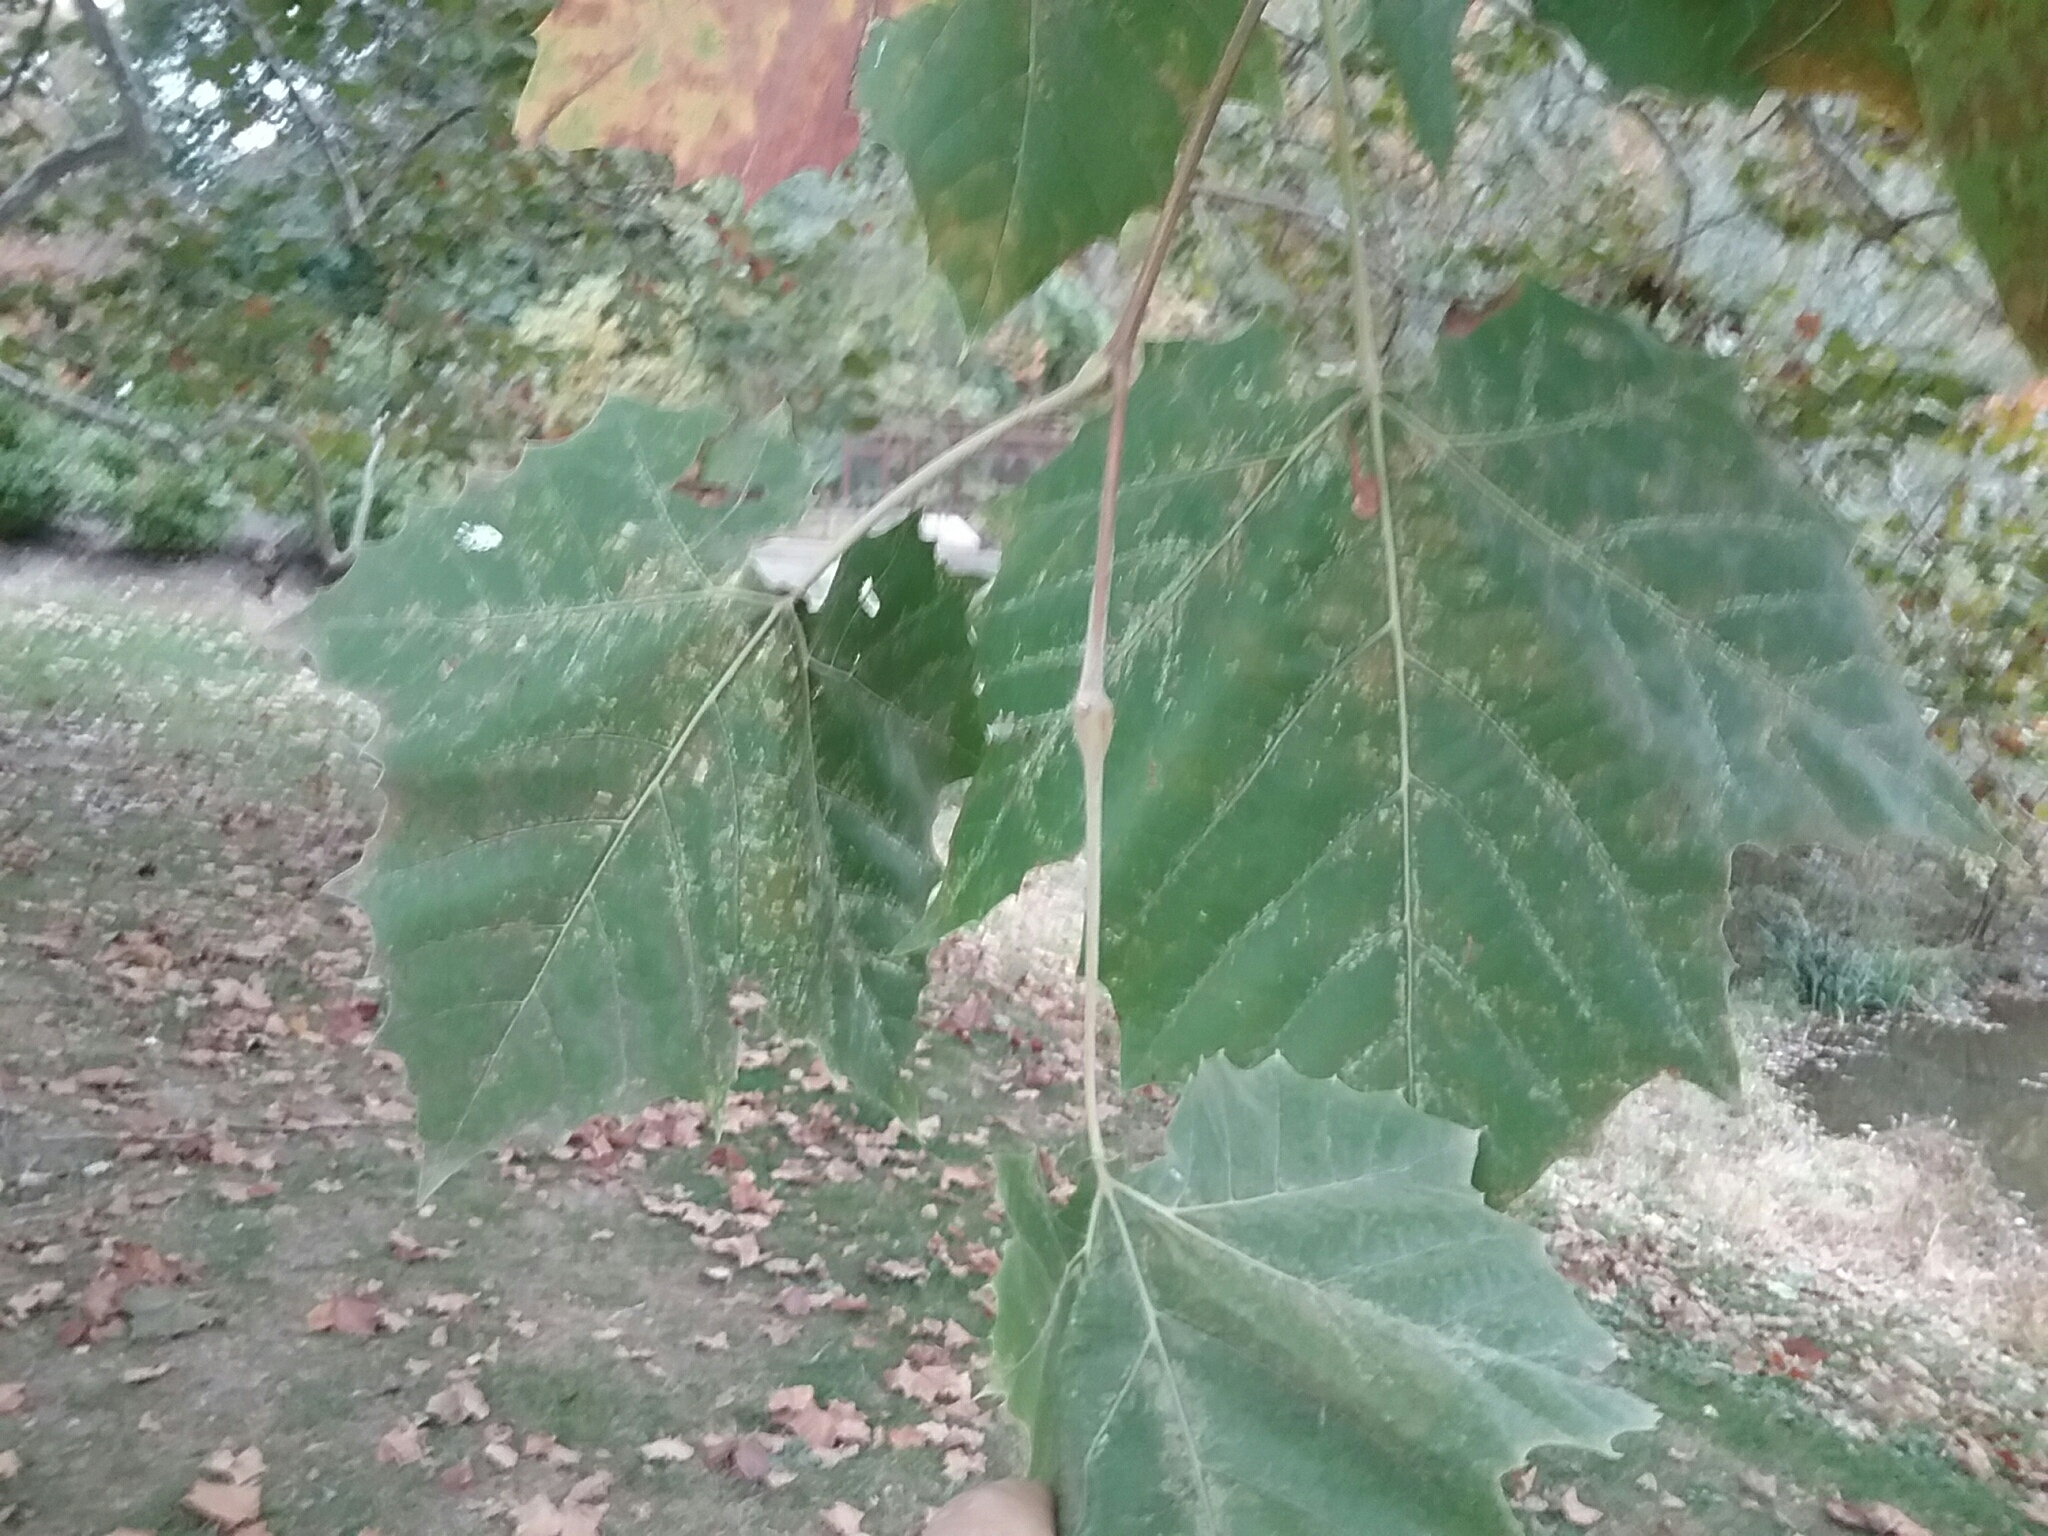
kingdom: Plantae
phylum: Tracheophyta
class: Magnoliopsida
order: Proteales
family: Platanaceae
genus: Platanus
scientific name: Platanus occidentalis
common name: American sycamore
